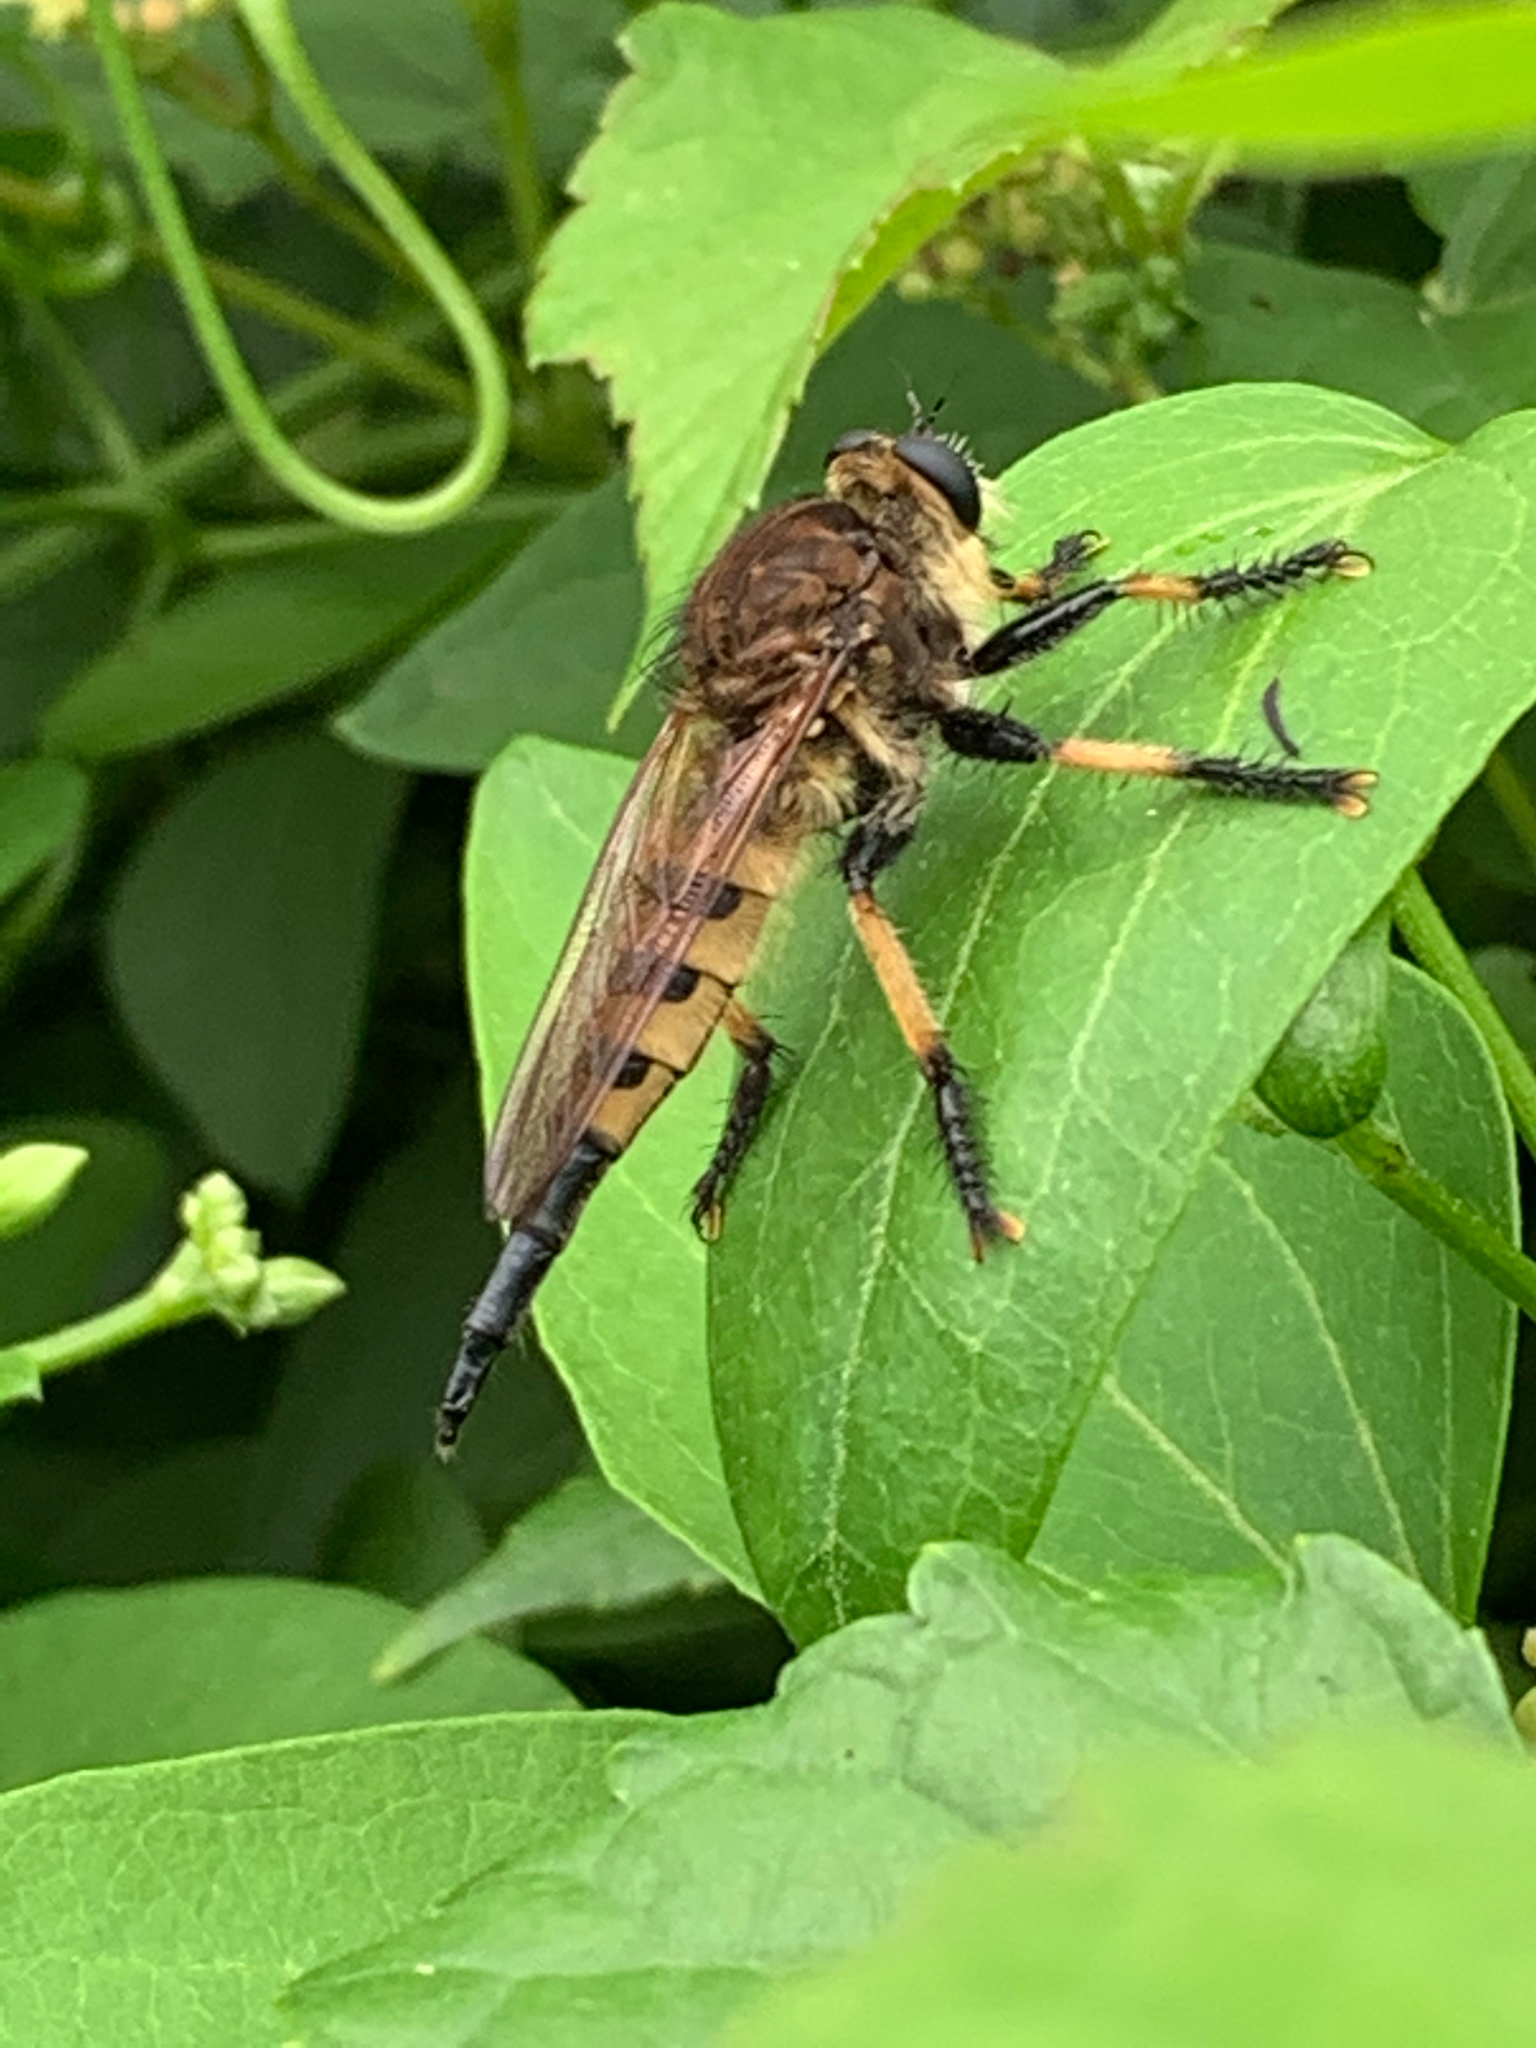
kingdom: Animalia
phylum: Arthropoda
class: Insecta
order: Diptera
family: Asilidae
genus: Promachus
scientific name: Promachus rufipes
